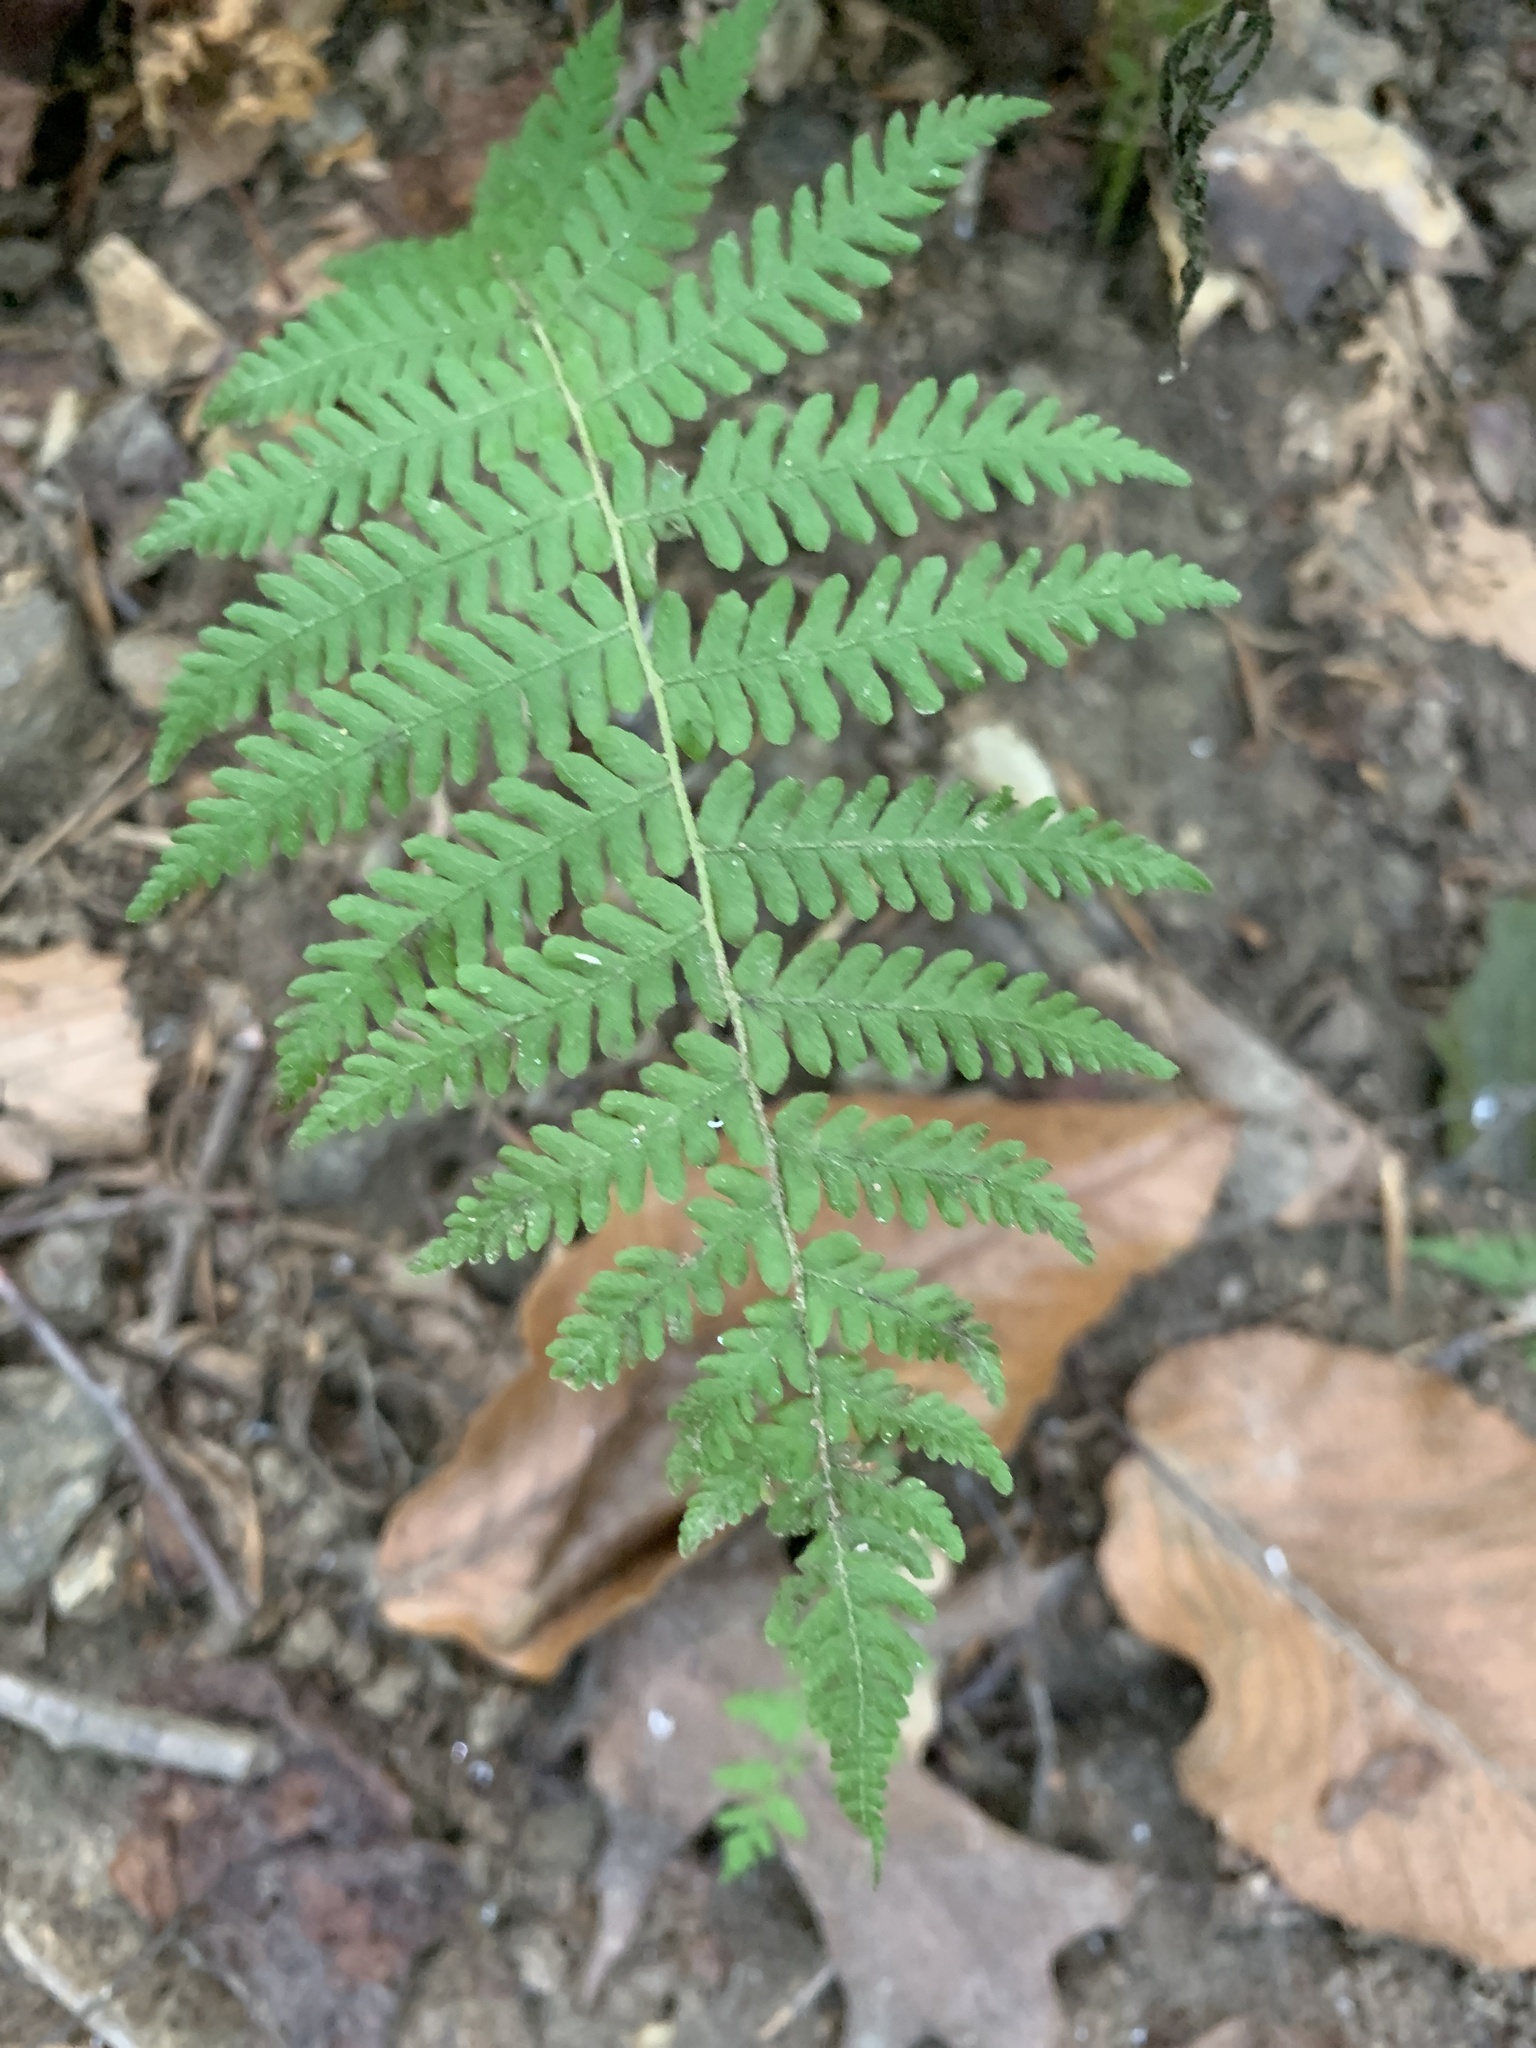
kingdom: Plantae
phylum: Tracheophyta
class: Polypodiopsida
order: Polypodiales
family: Thelypteridaceae
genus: Amauropelta
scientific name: Amauropelta noveboracensis
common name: New york fern
